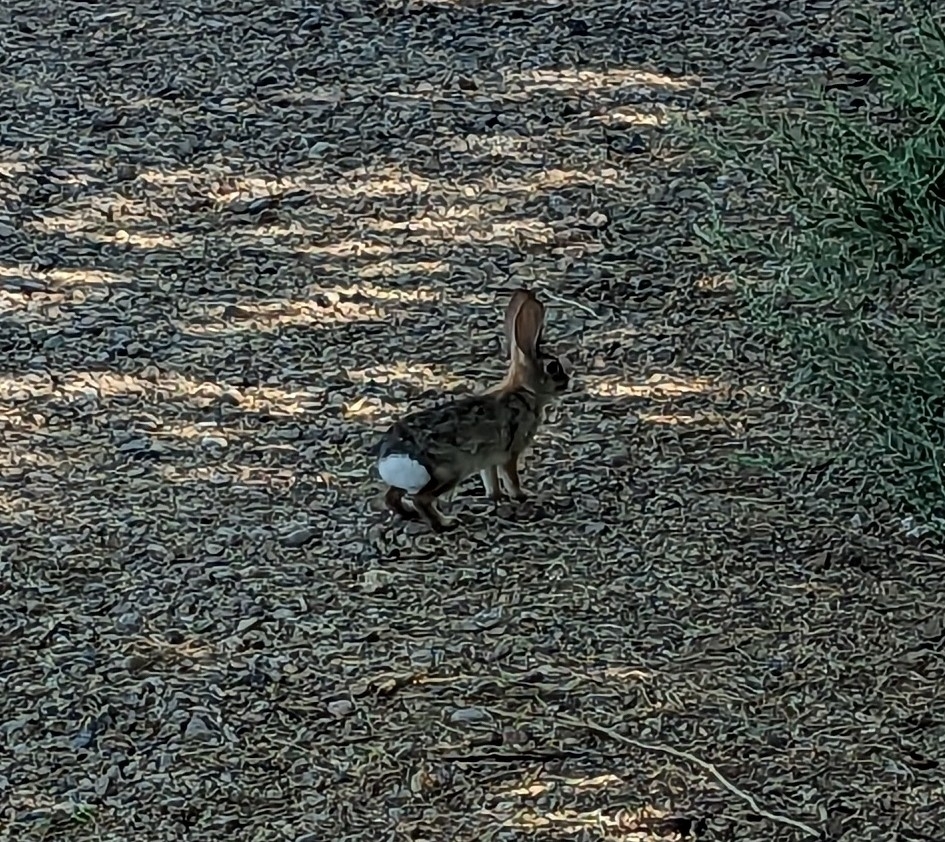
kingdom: Animalia
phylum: Chordata
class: Mammalia
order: Lagomorpha
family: Leporidae
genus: Sylvilagus
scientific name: Sylvilagus audubonii
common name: Desert cottontail
